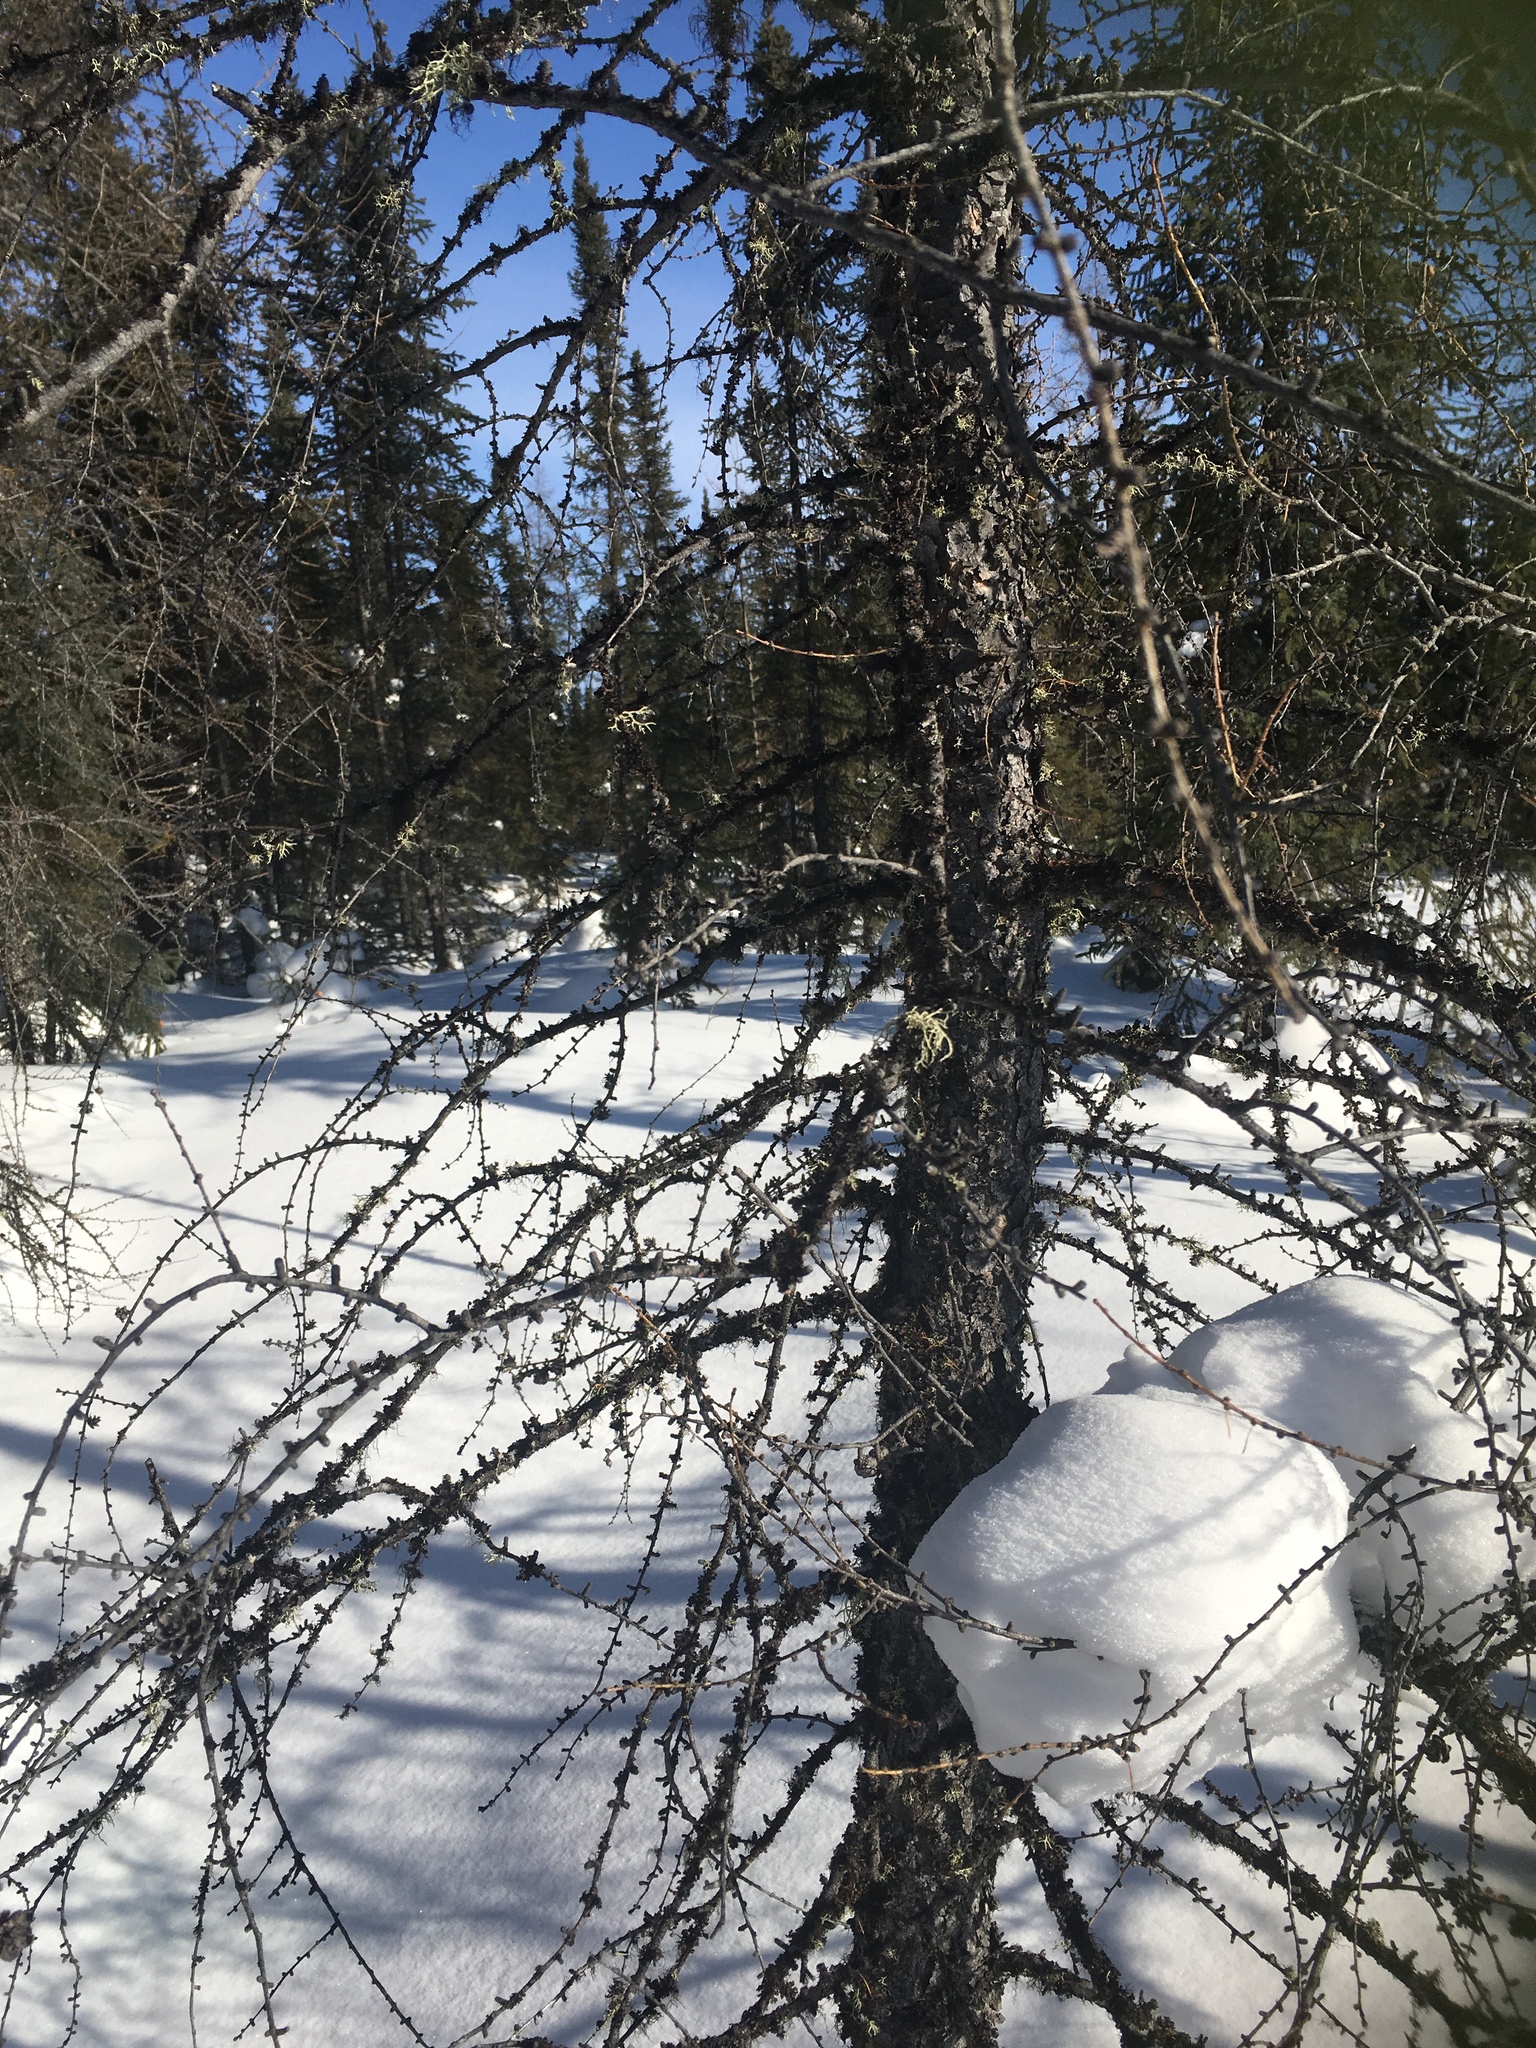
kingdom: Plantae
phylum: Tracheophyta
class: Pinopsida
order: Pinales
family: Pinaceae
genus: Larix
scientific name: Larix laricina
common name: American larch
